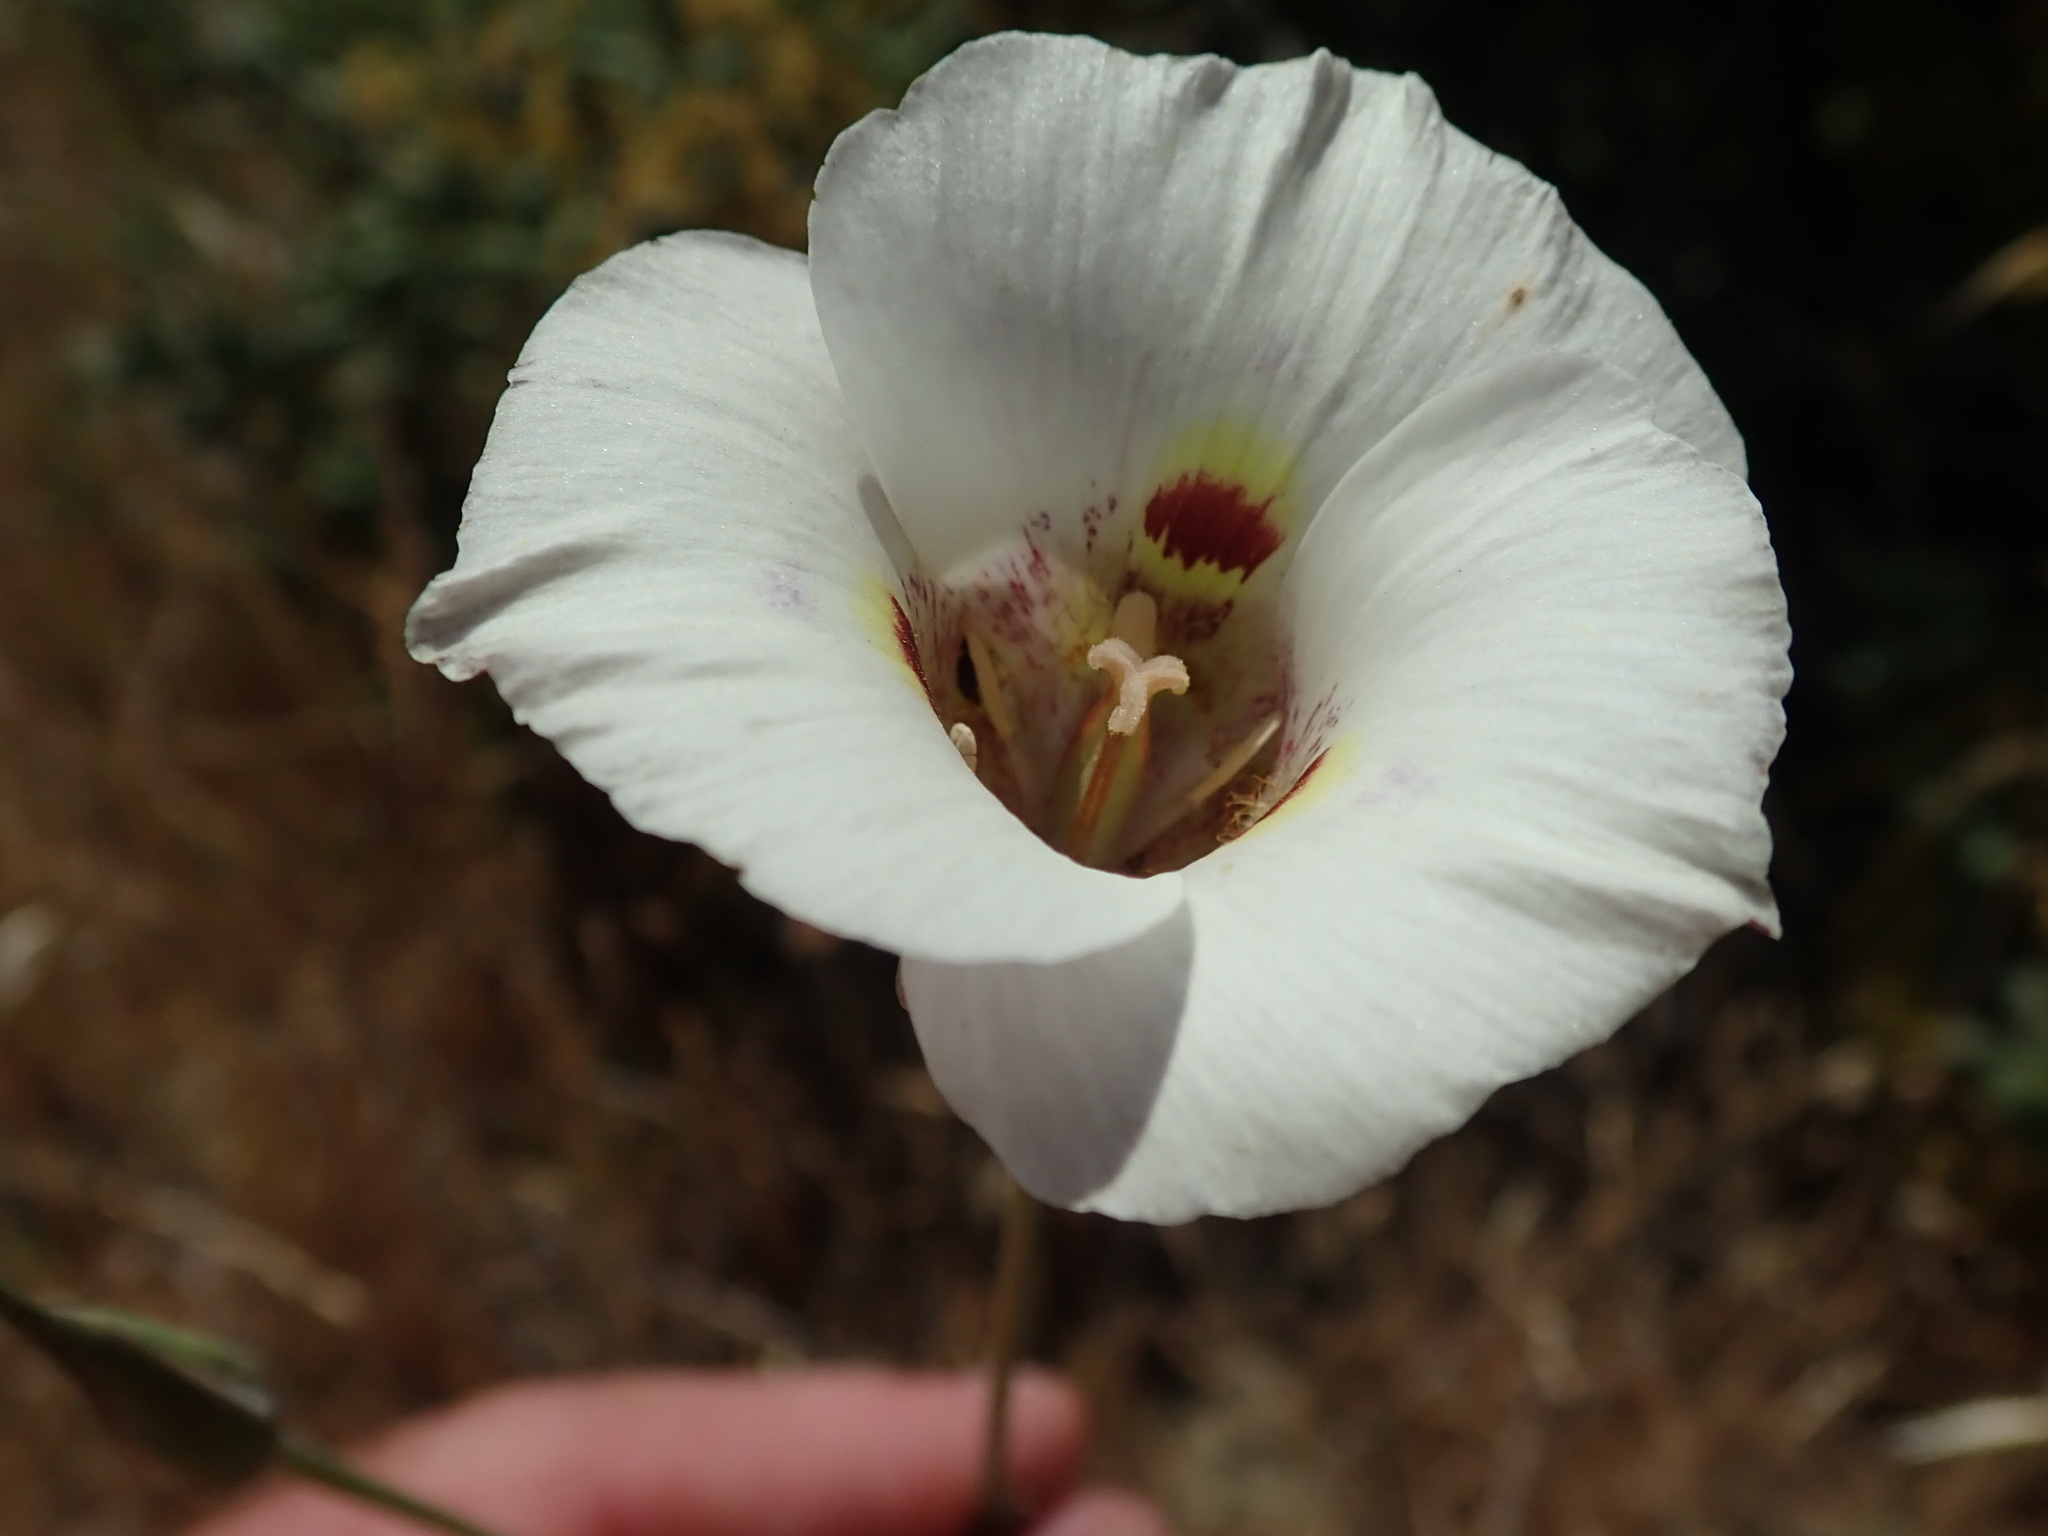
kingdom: Plantae
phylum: Tracheophyta
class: Liliopsida
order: Liliales
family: Liliaceae
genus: Calochortus
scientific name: Calochortus argillosus
